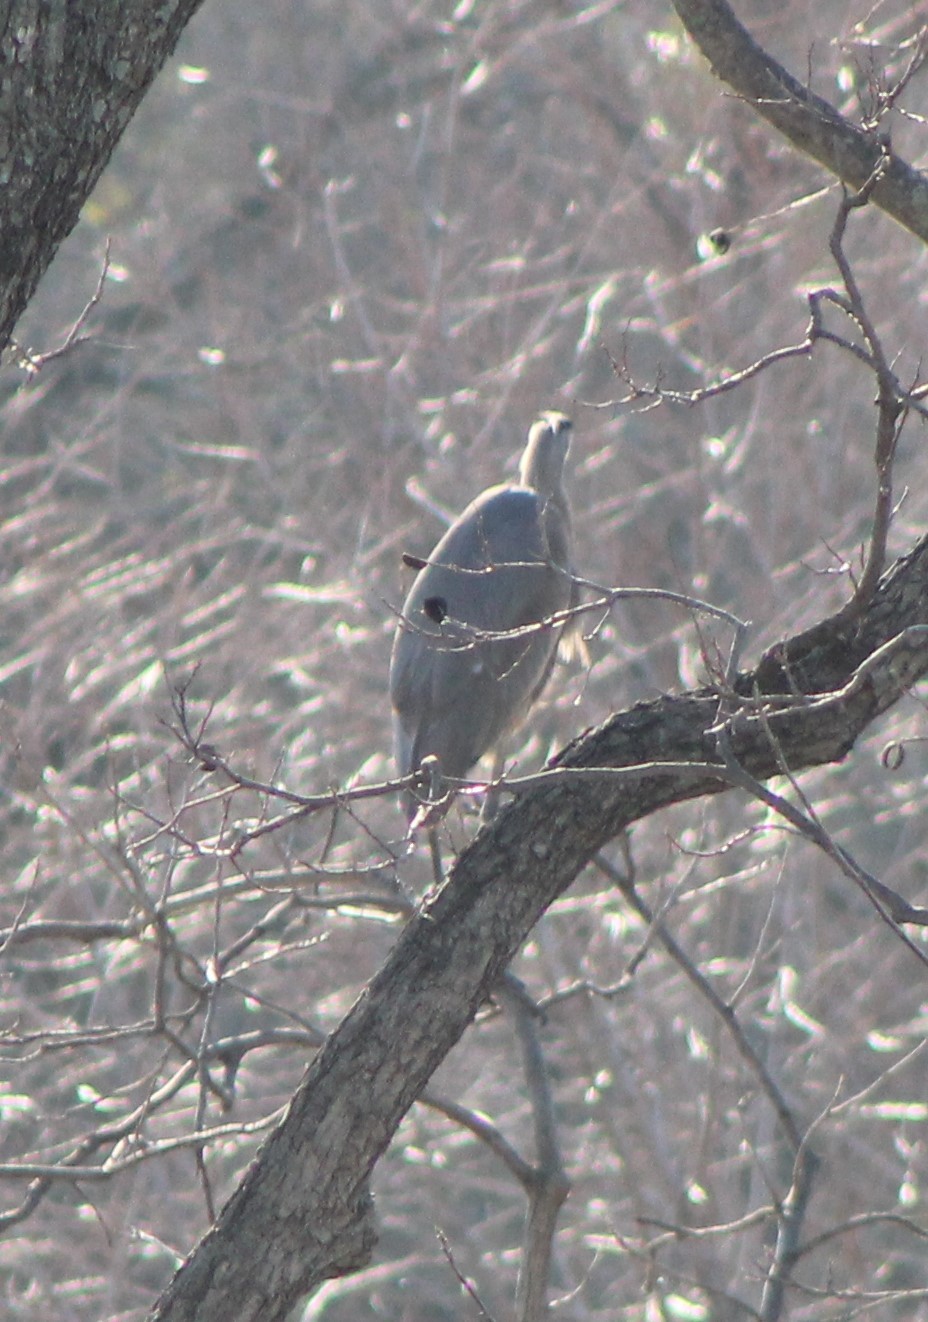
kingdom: Animalia
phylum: Chordata
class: Aves
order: Pelecaniformes
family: Ardeidae
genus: Ardea
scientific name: Ardea herodias
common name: Great blue heron
